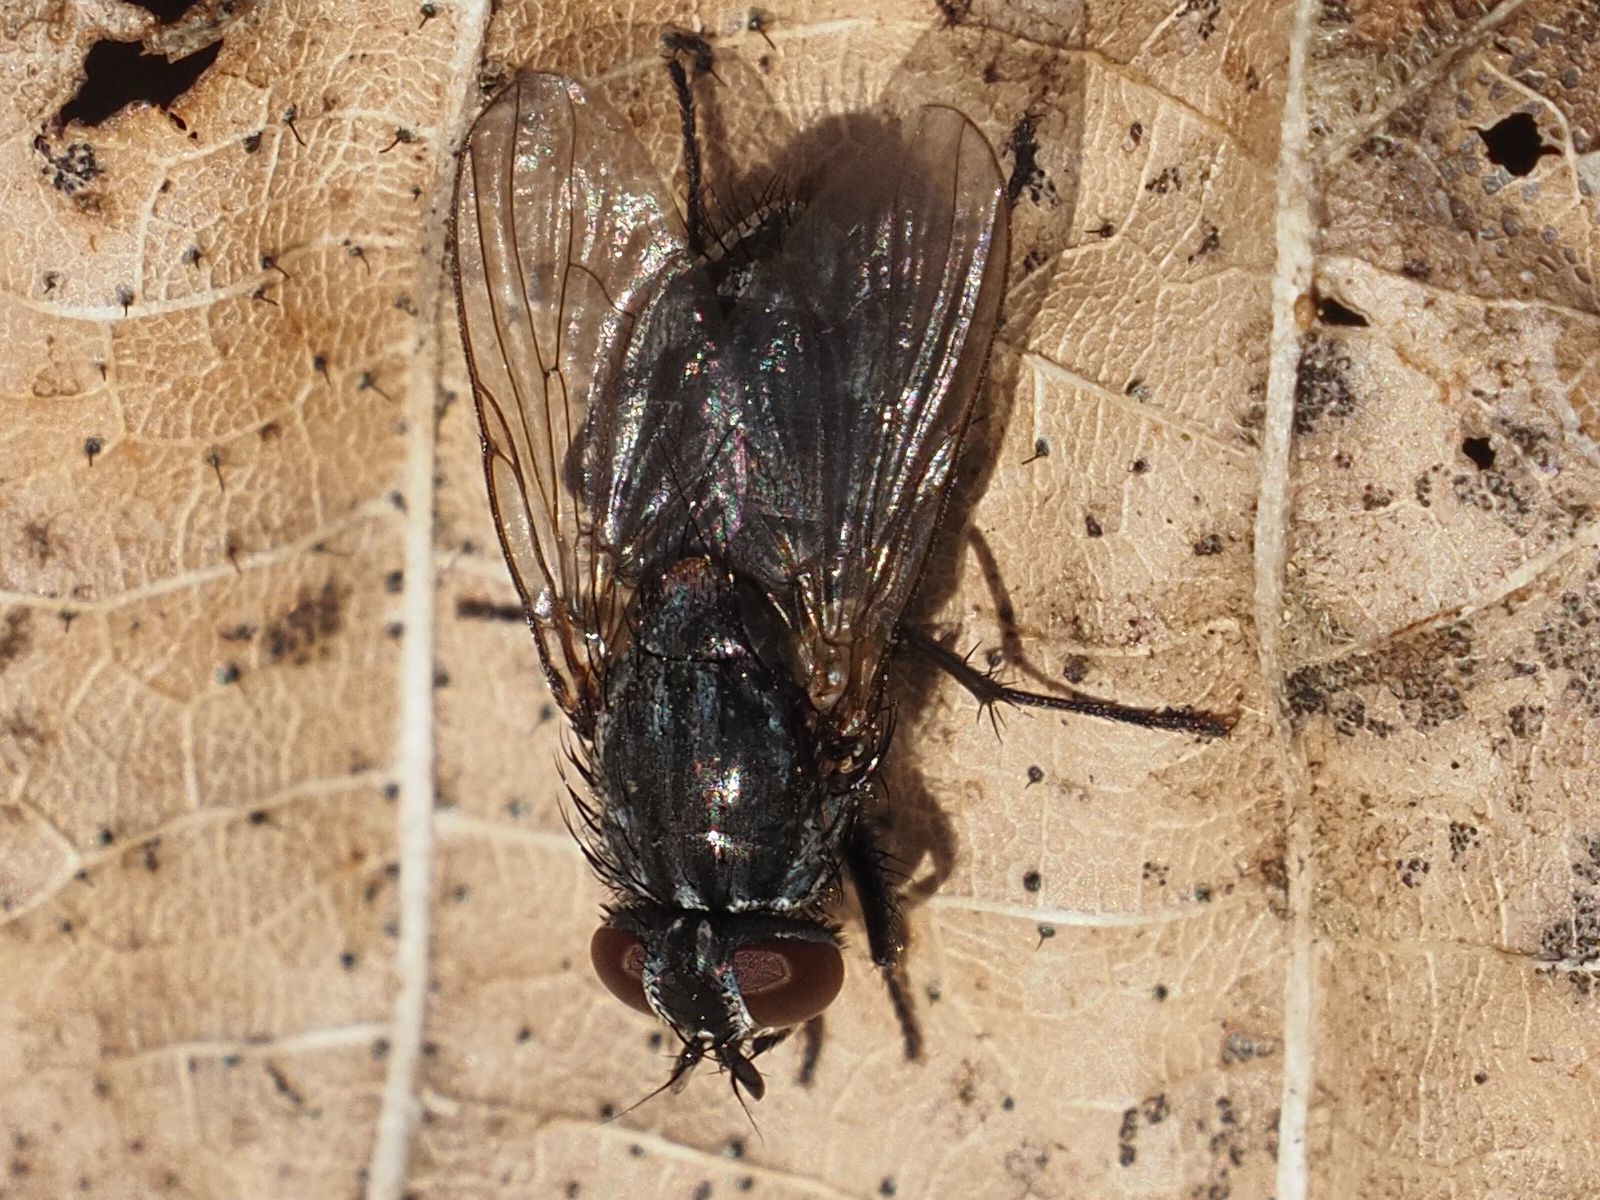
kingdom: Animalia
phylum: Arthropoda
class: Insecta
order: Diptera
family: Muscidae
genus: Muscina
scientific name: Muscina levida
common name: House fly
